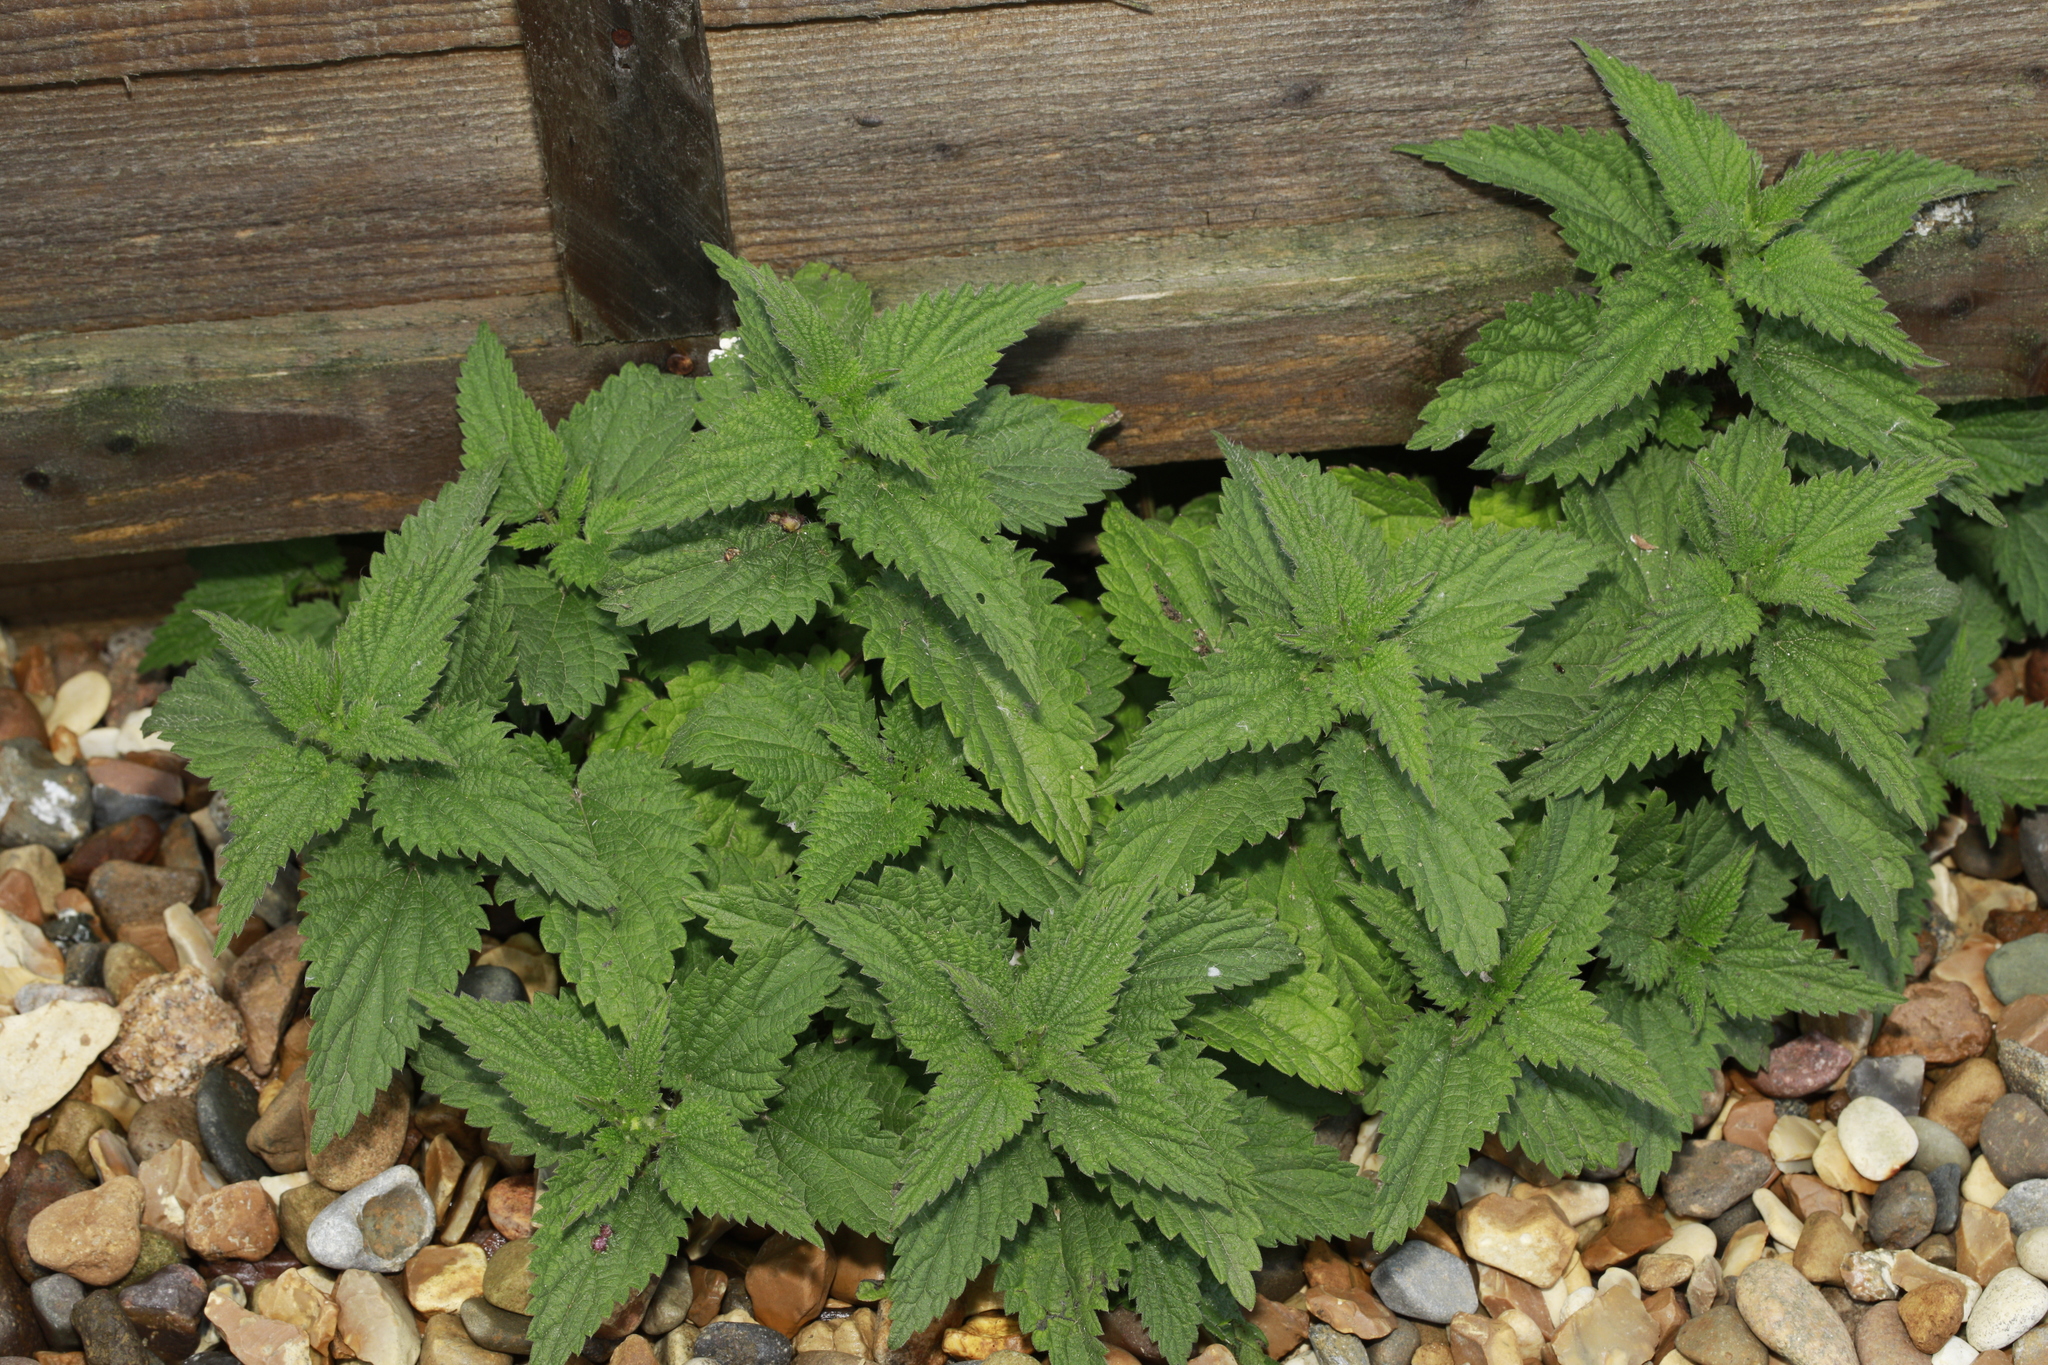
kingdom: Plantae
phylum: Tracheophyta
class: Magnoliopsida
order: Rosales
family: Urticaceae
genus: Urtica
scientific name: Urtica dioica
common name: Common nettle
